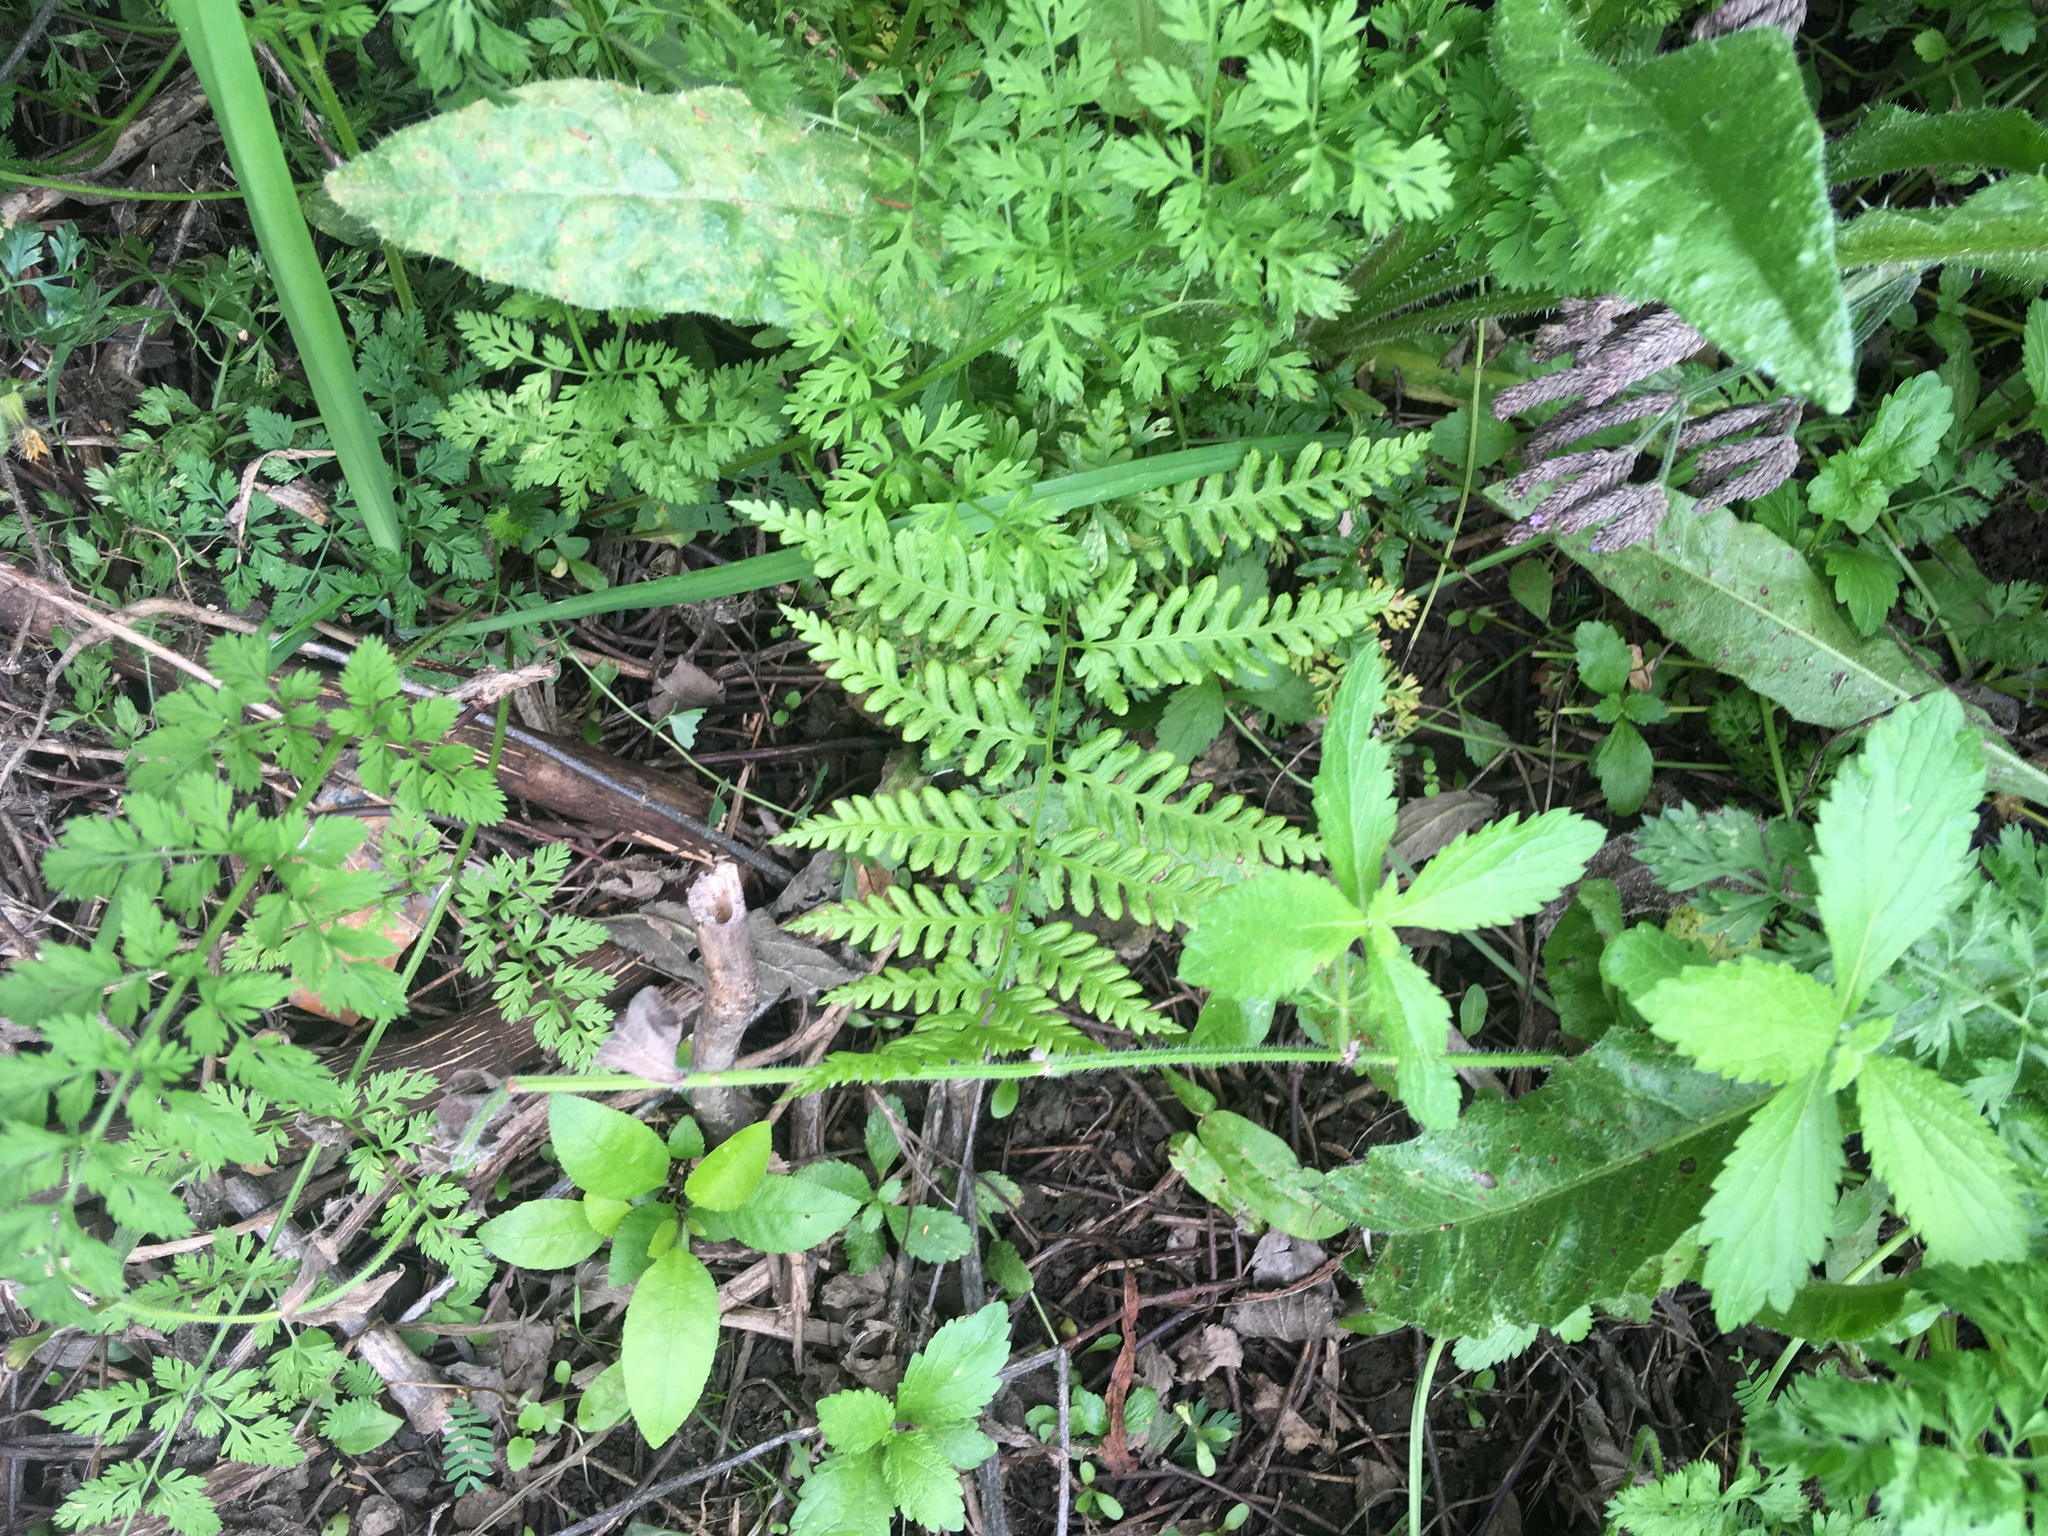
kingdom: Plantae
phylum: Tracheophyta
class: Polypodiopsida
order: Polypodiales
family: Pteridaceae
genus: Pteris
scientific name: Pteris tremula
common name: Australian brake
